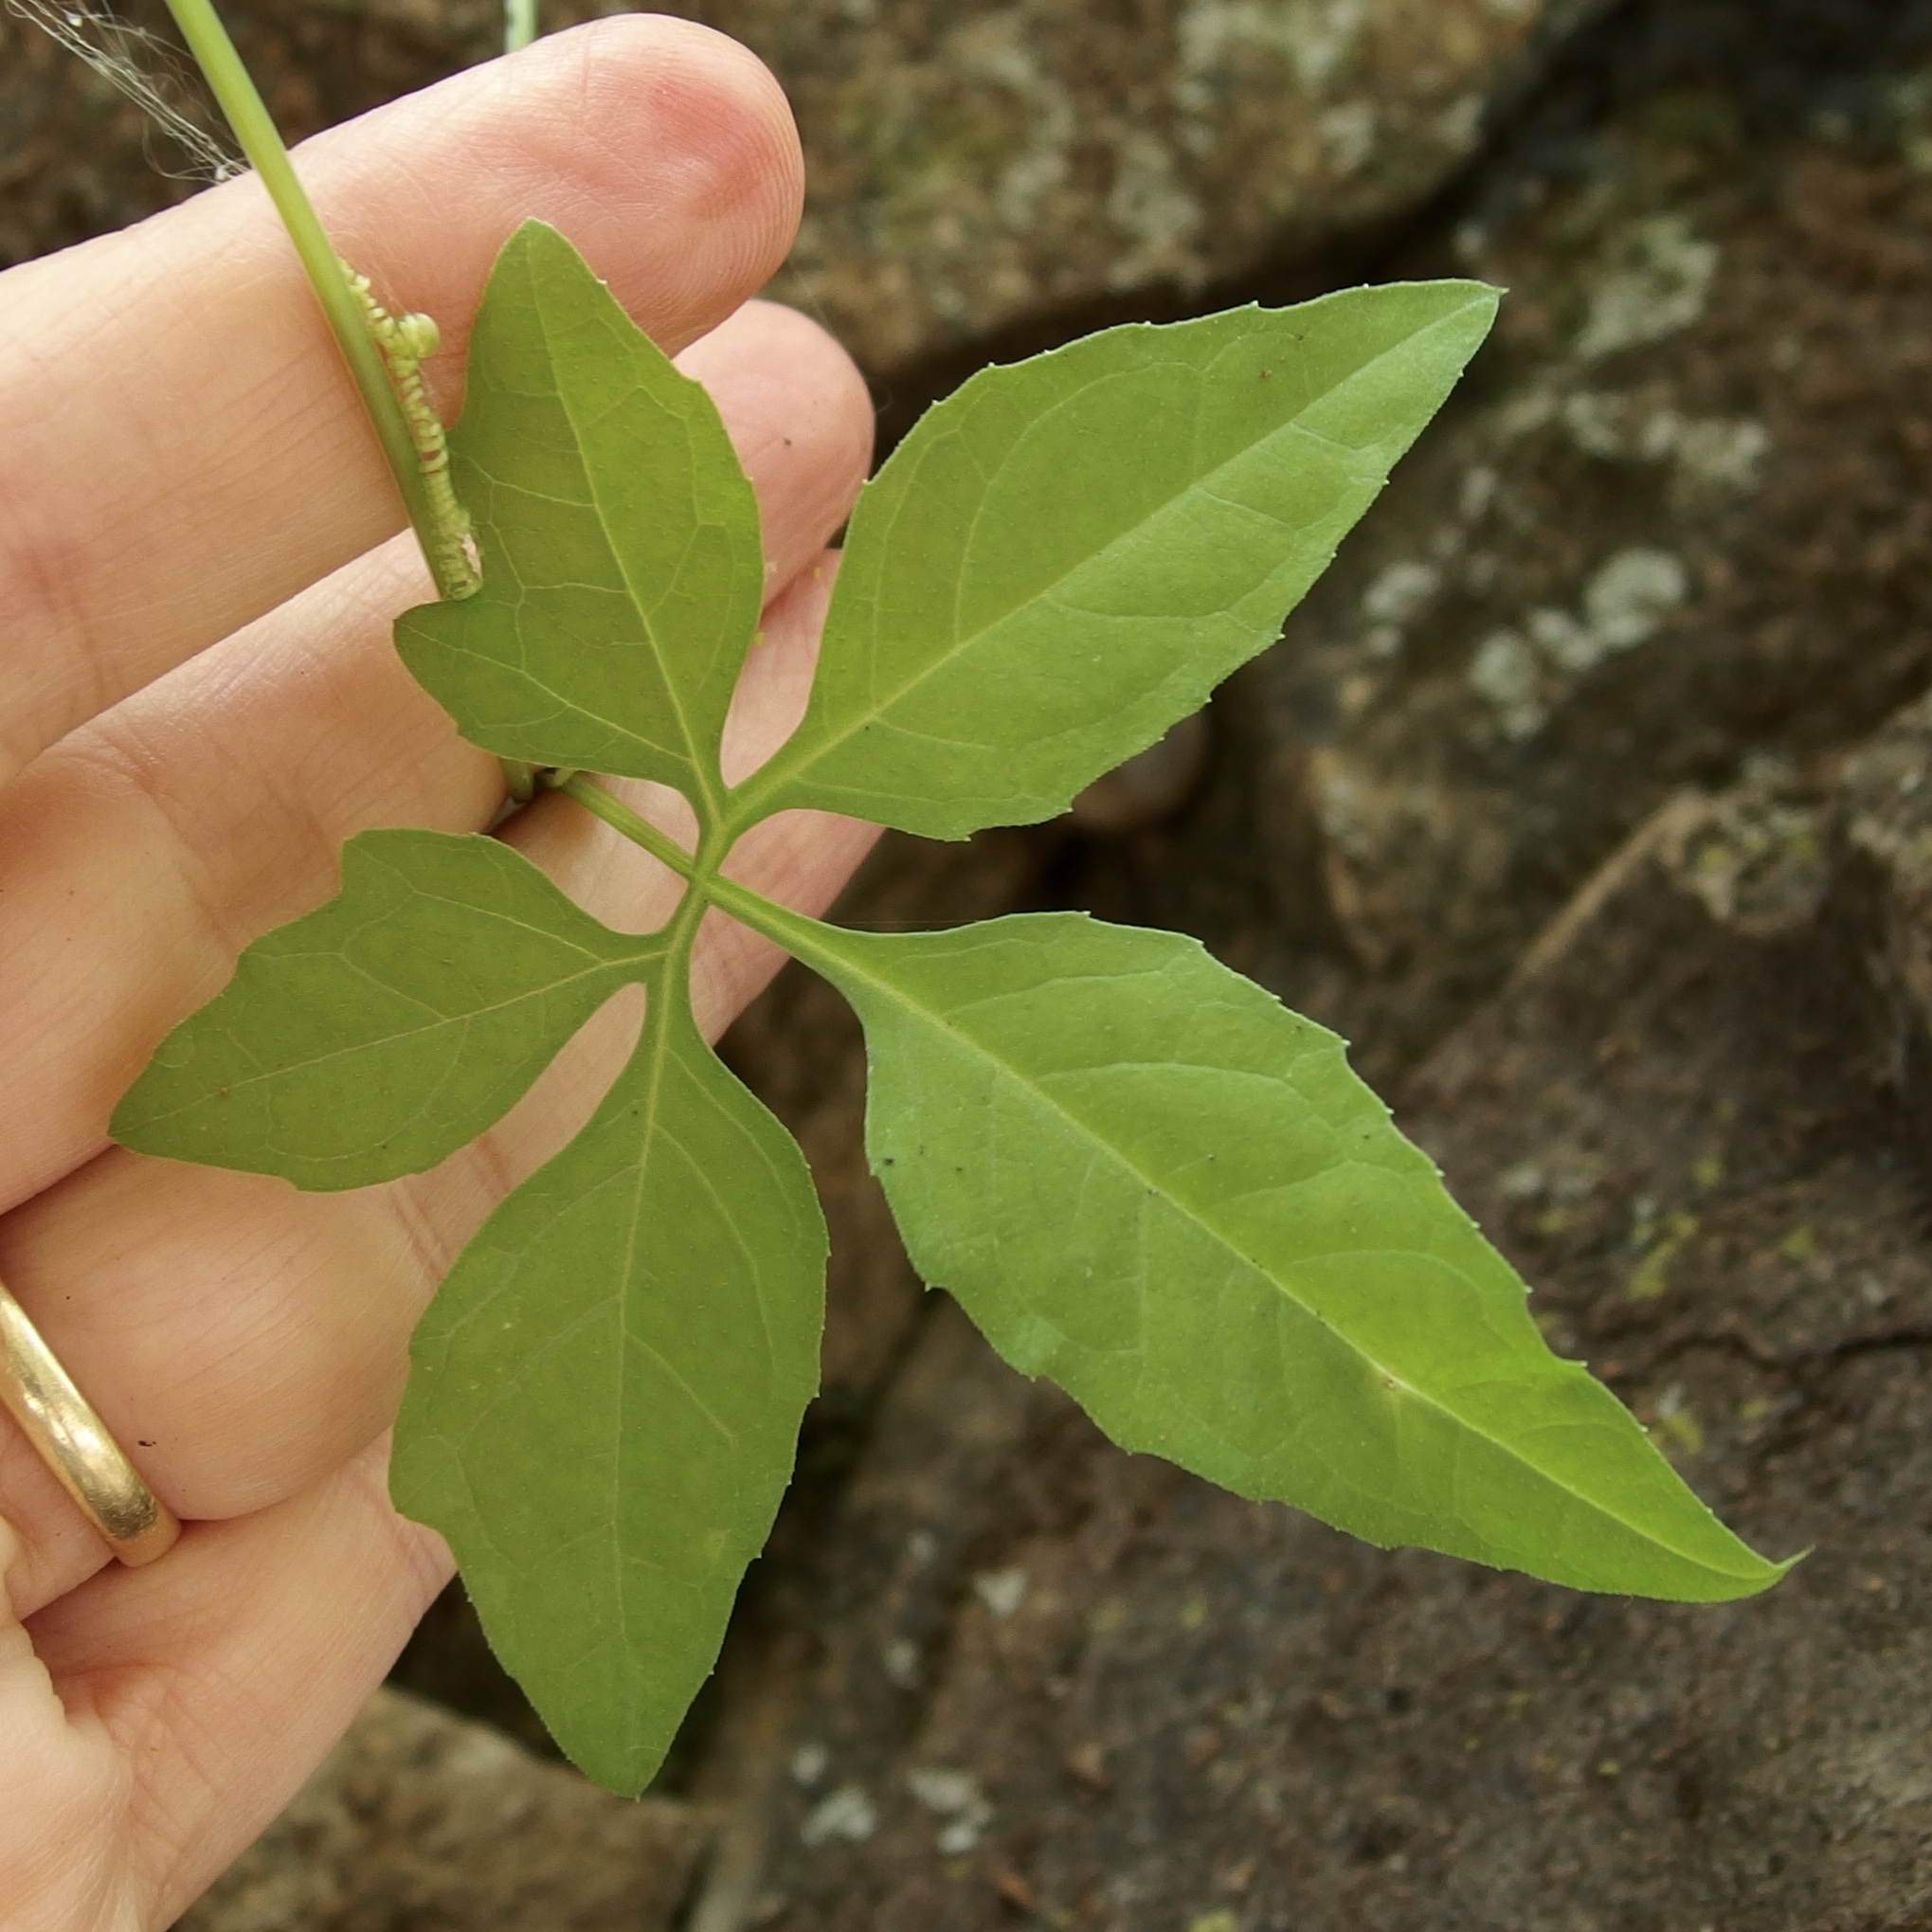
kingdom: Plantae
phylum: Tracheophyta
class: Magnoliopsida
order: Cucurbitales
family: Cucurbitaceae
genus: Cyclanthera
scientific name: Cyclanthera gracillima
